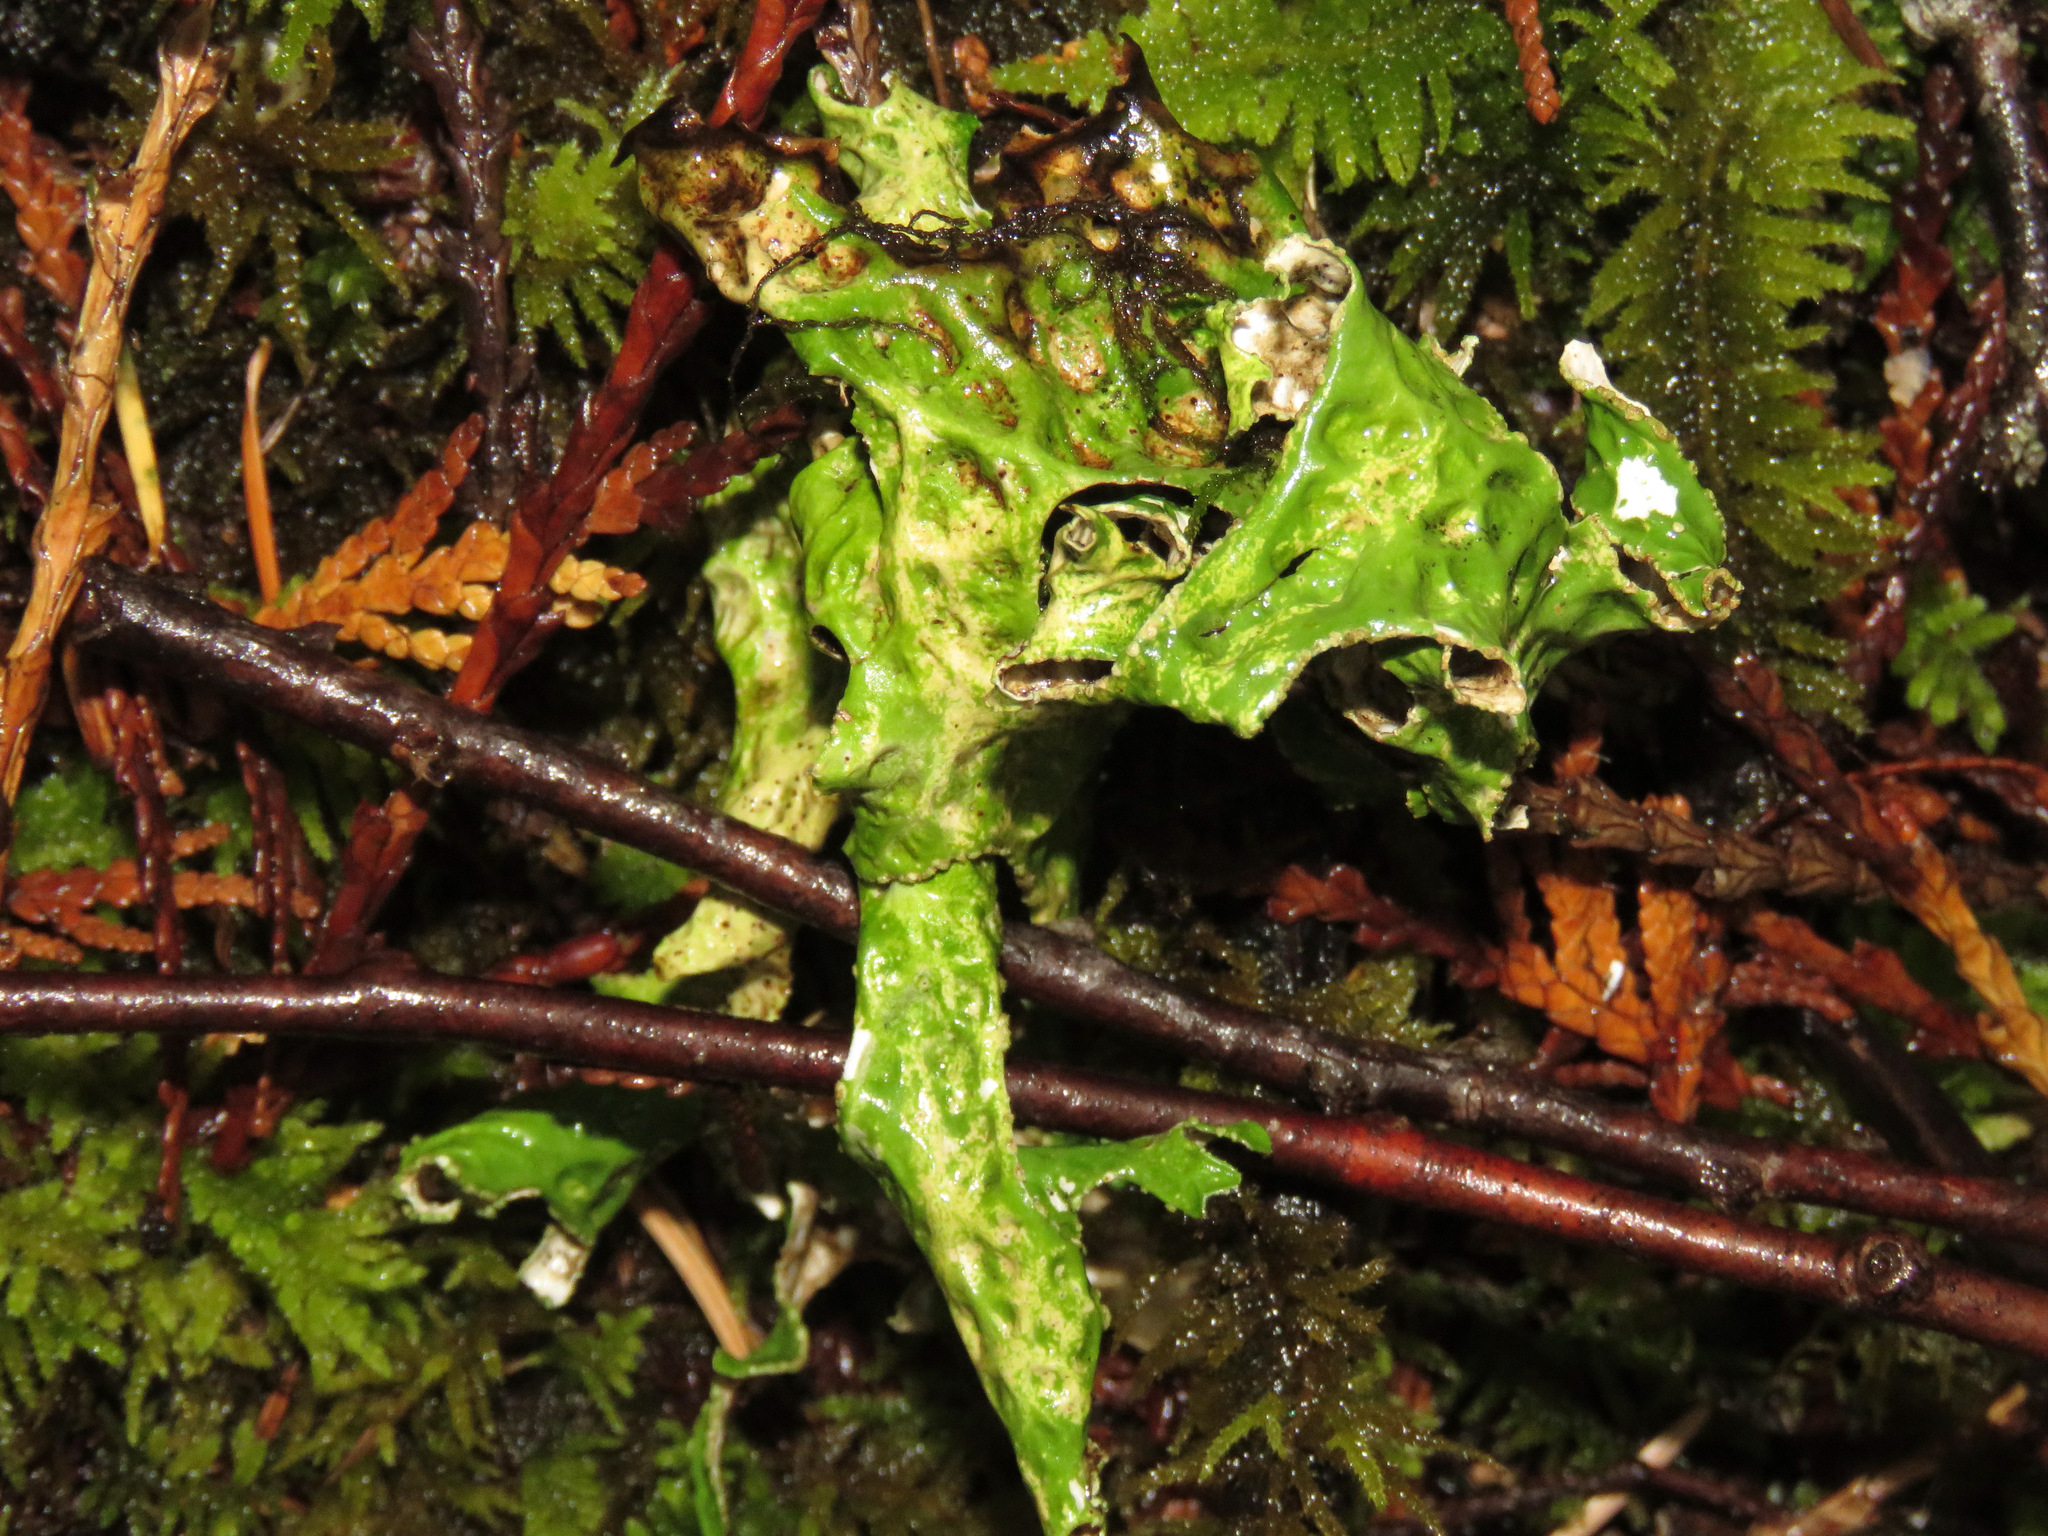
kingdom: Fungi
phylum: Ascomycota
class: Lecanoromycetes
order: Peltigerales
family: Lobariaceae
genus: Lobaria
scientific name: Lobaria pulmonaria
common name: Lungwort
